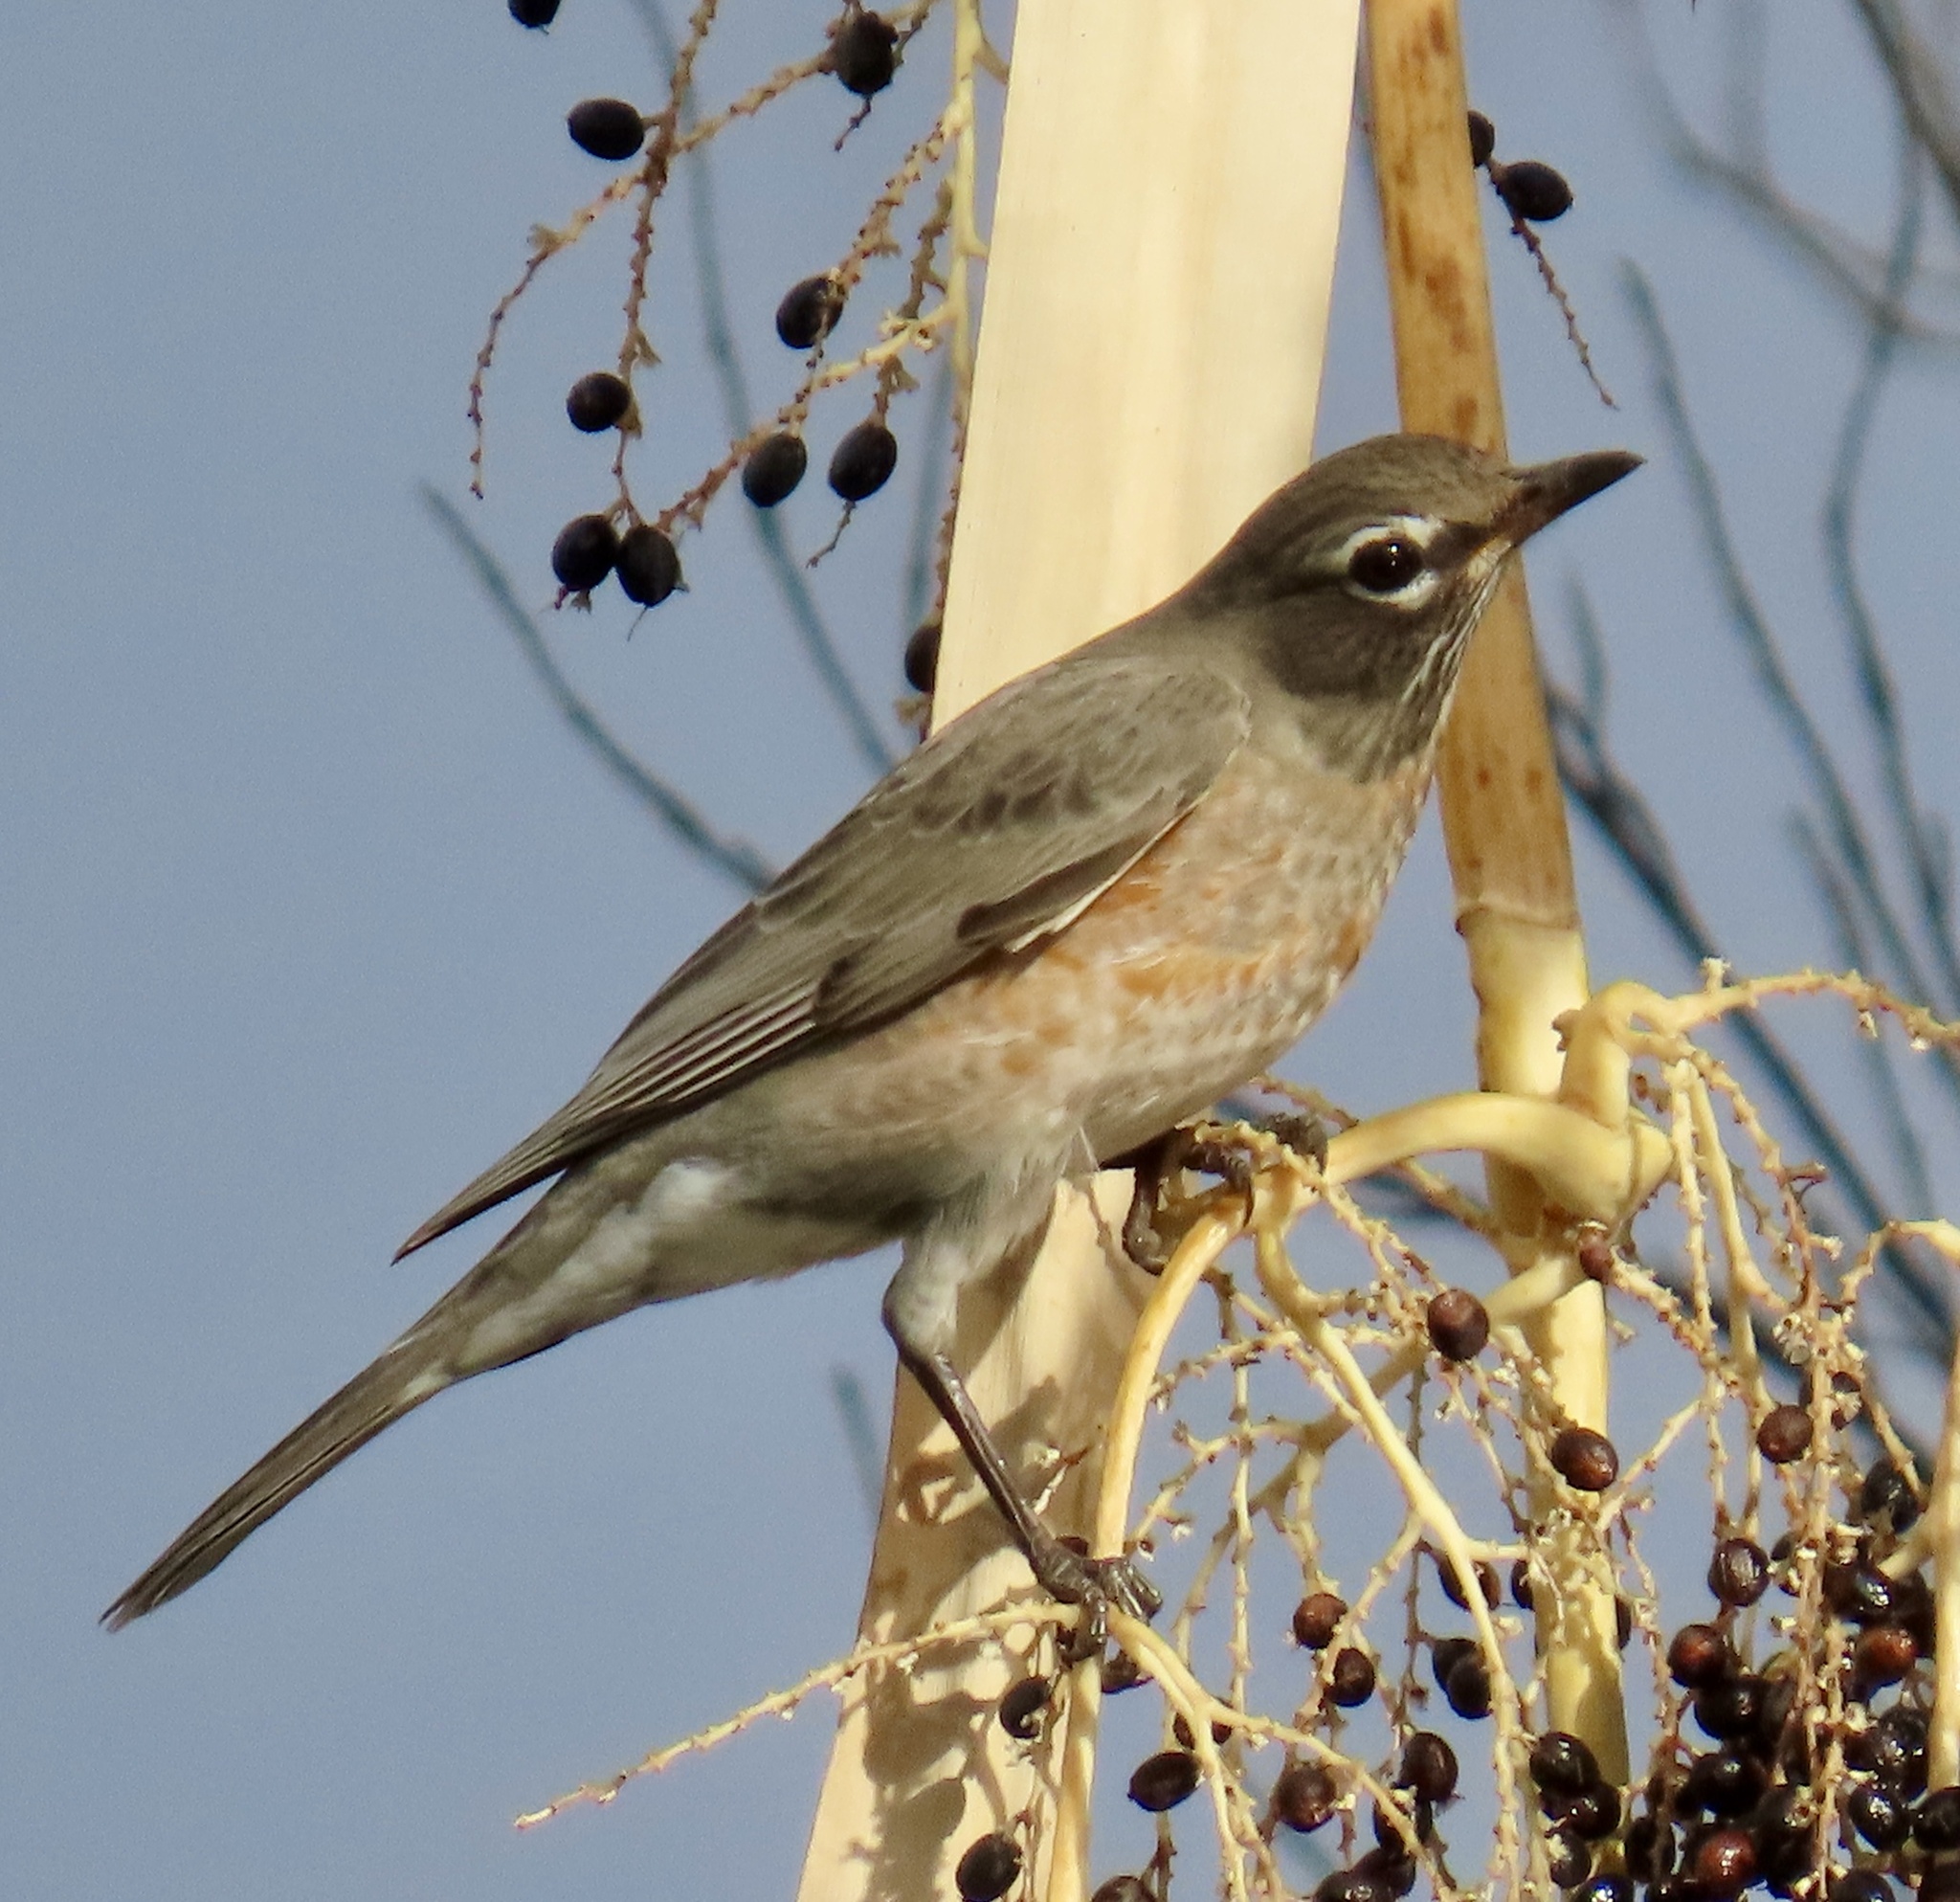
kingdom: Animalia
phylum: Chordata
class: Aves
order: Passeriformes
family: Turdidae
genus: Turdus
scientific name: Turdus migratorius
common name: American robin
